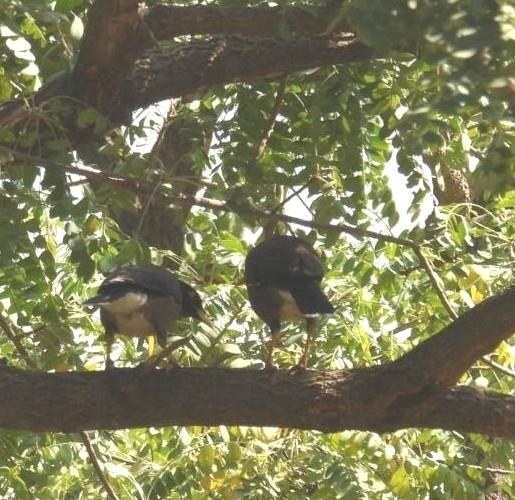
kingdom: Animalia
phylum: Chordata
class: Aves
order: Passeriformes
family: Sturnidae
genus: Acridotheres
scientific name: Acridotheres tristis
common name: Common myna
